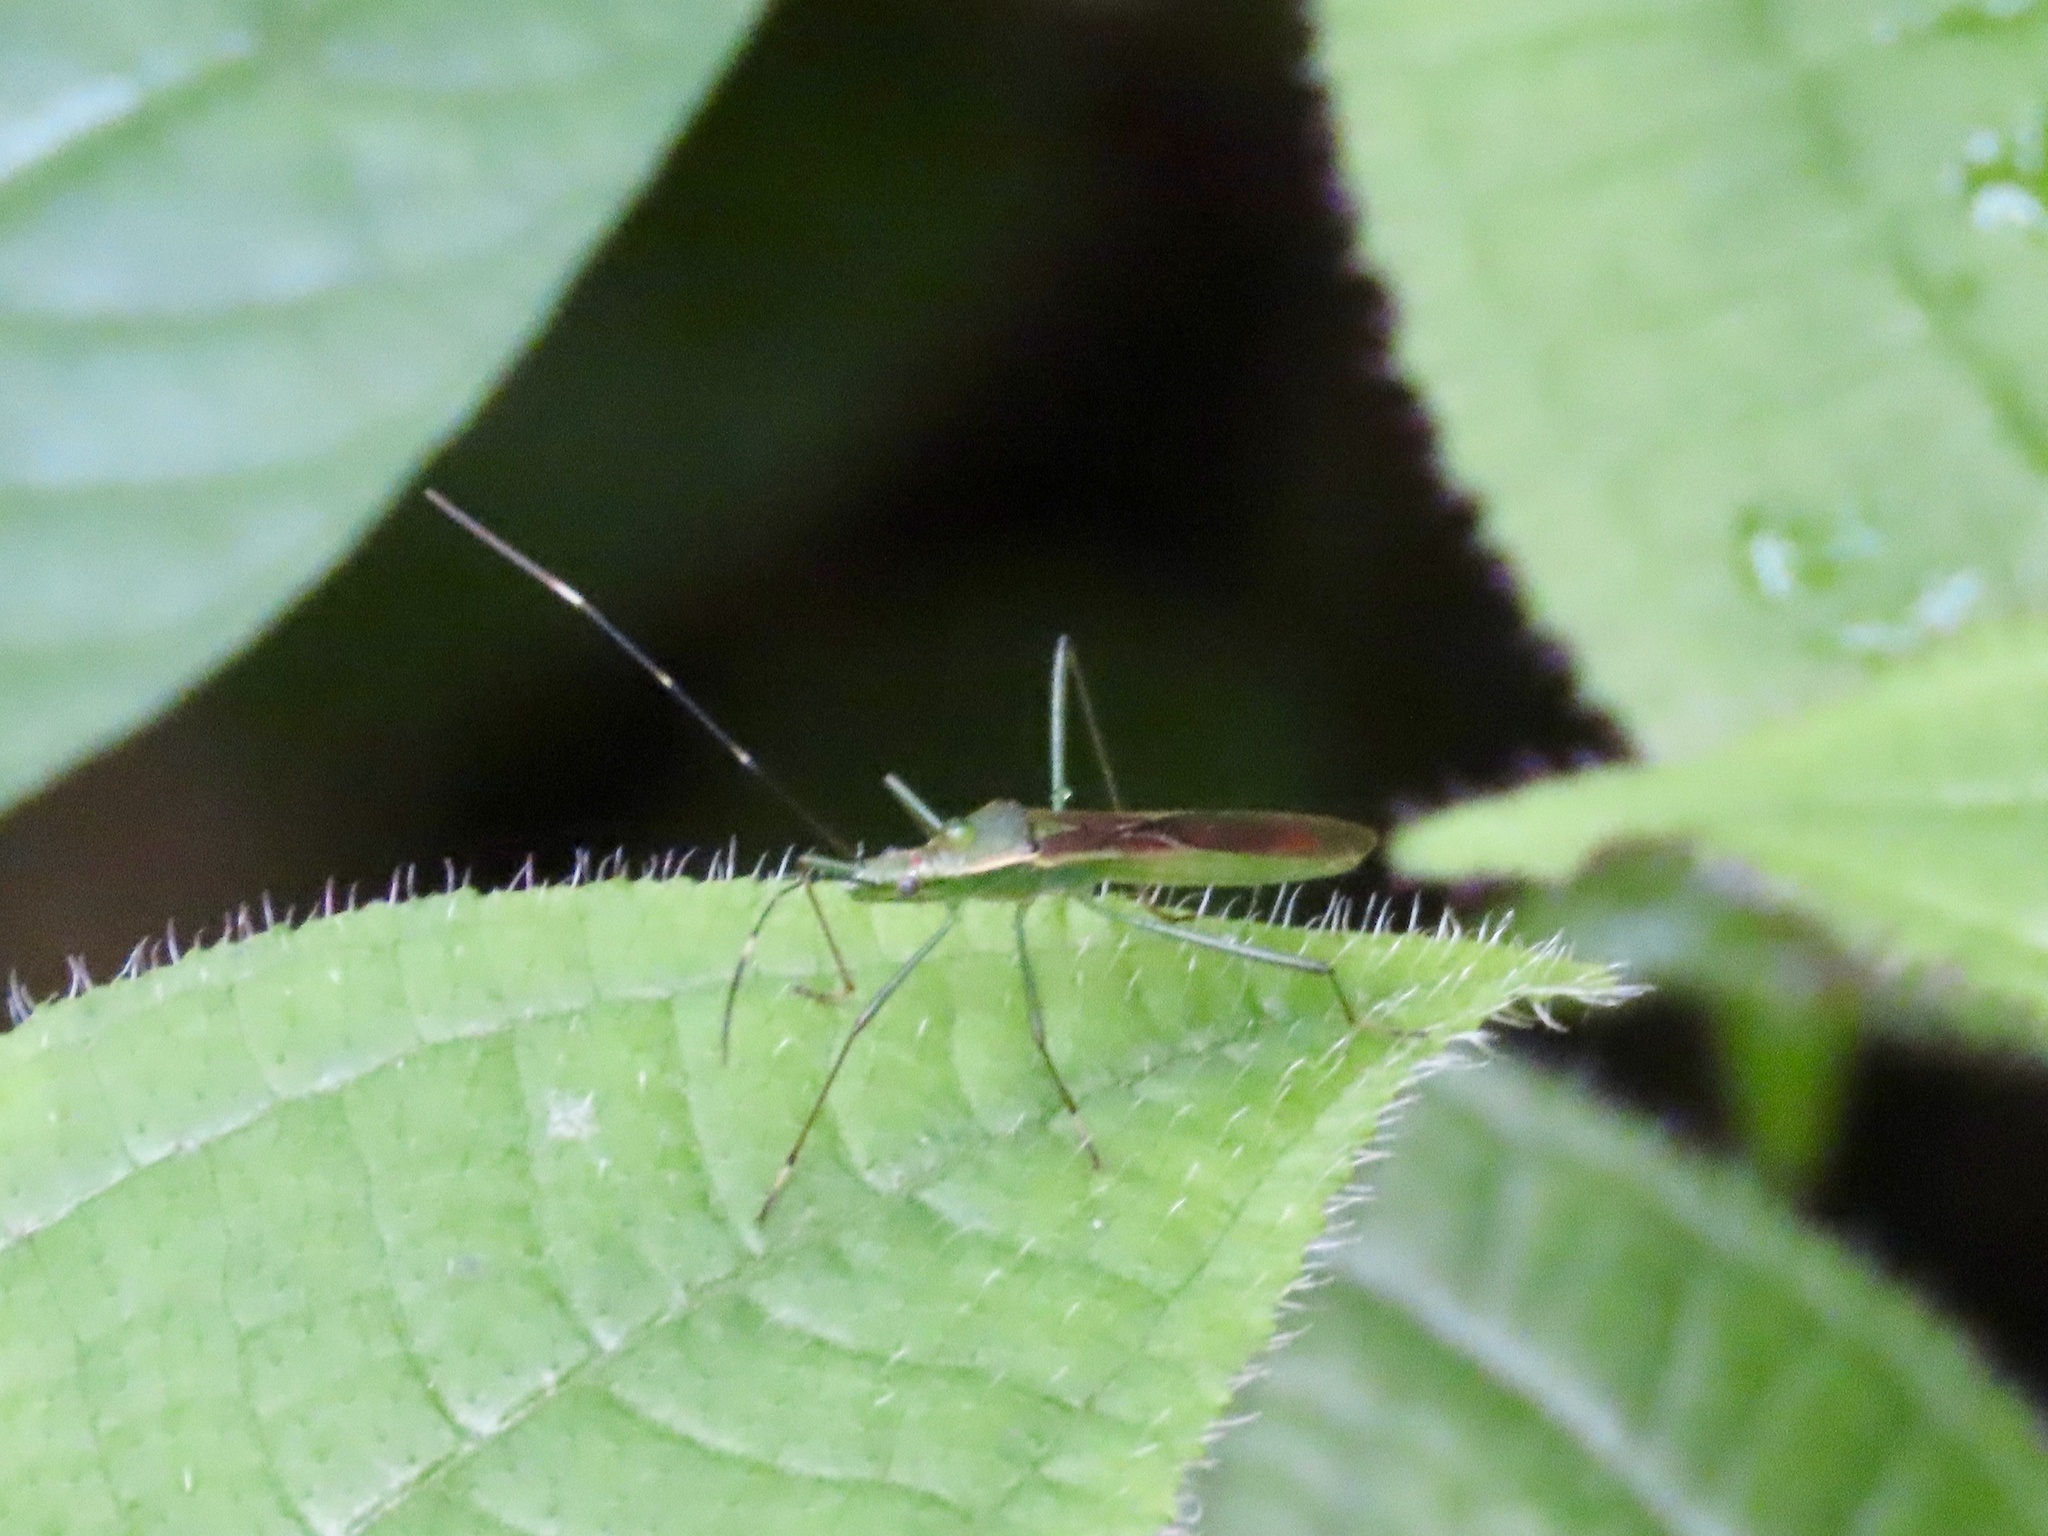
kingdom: Animalia
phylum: Arthropoda
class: Insecta
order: Hemiptera
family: Alydidae
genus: Leptocorisa
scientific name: Leptocorisa costalis
